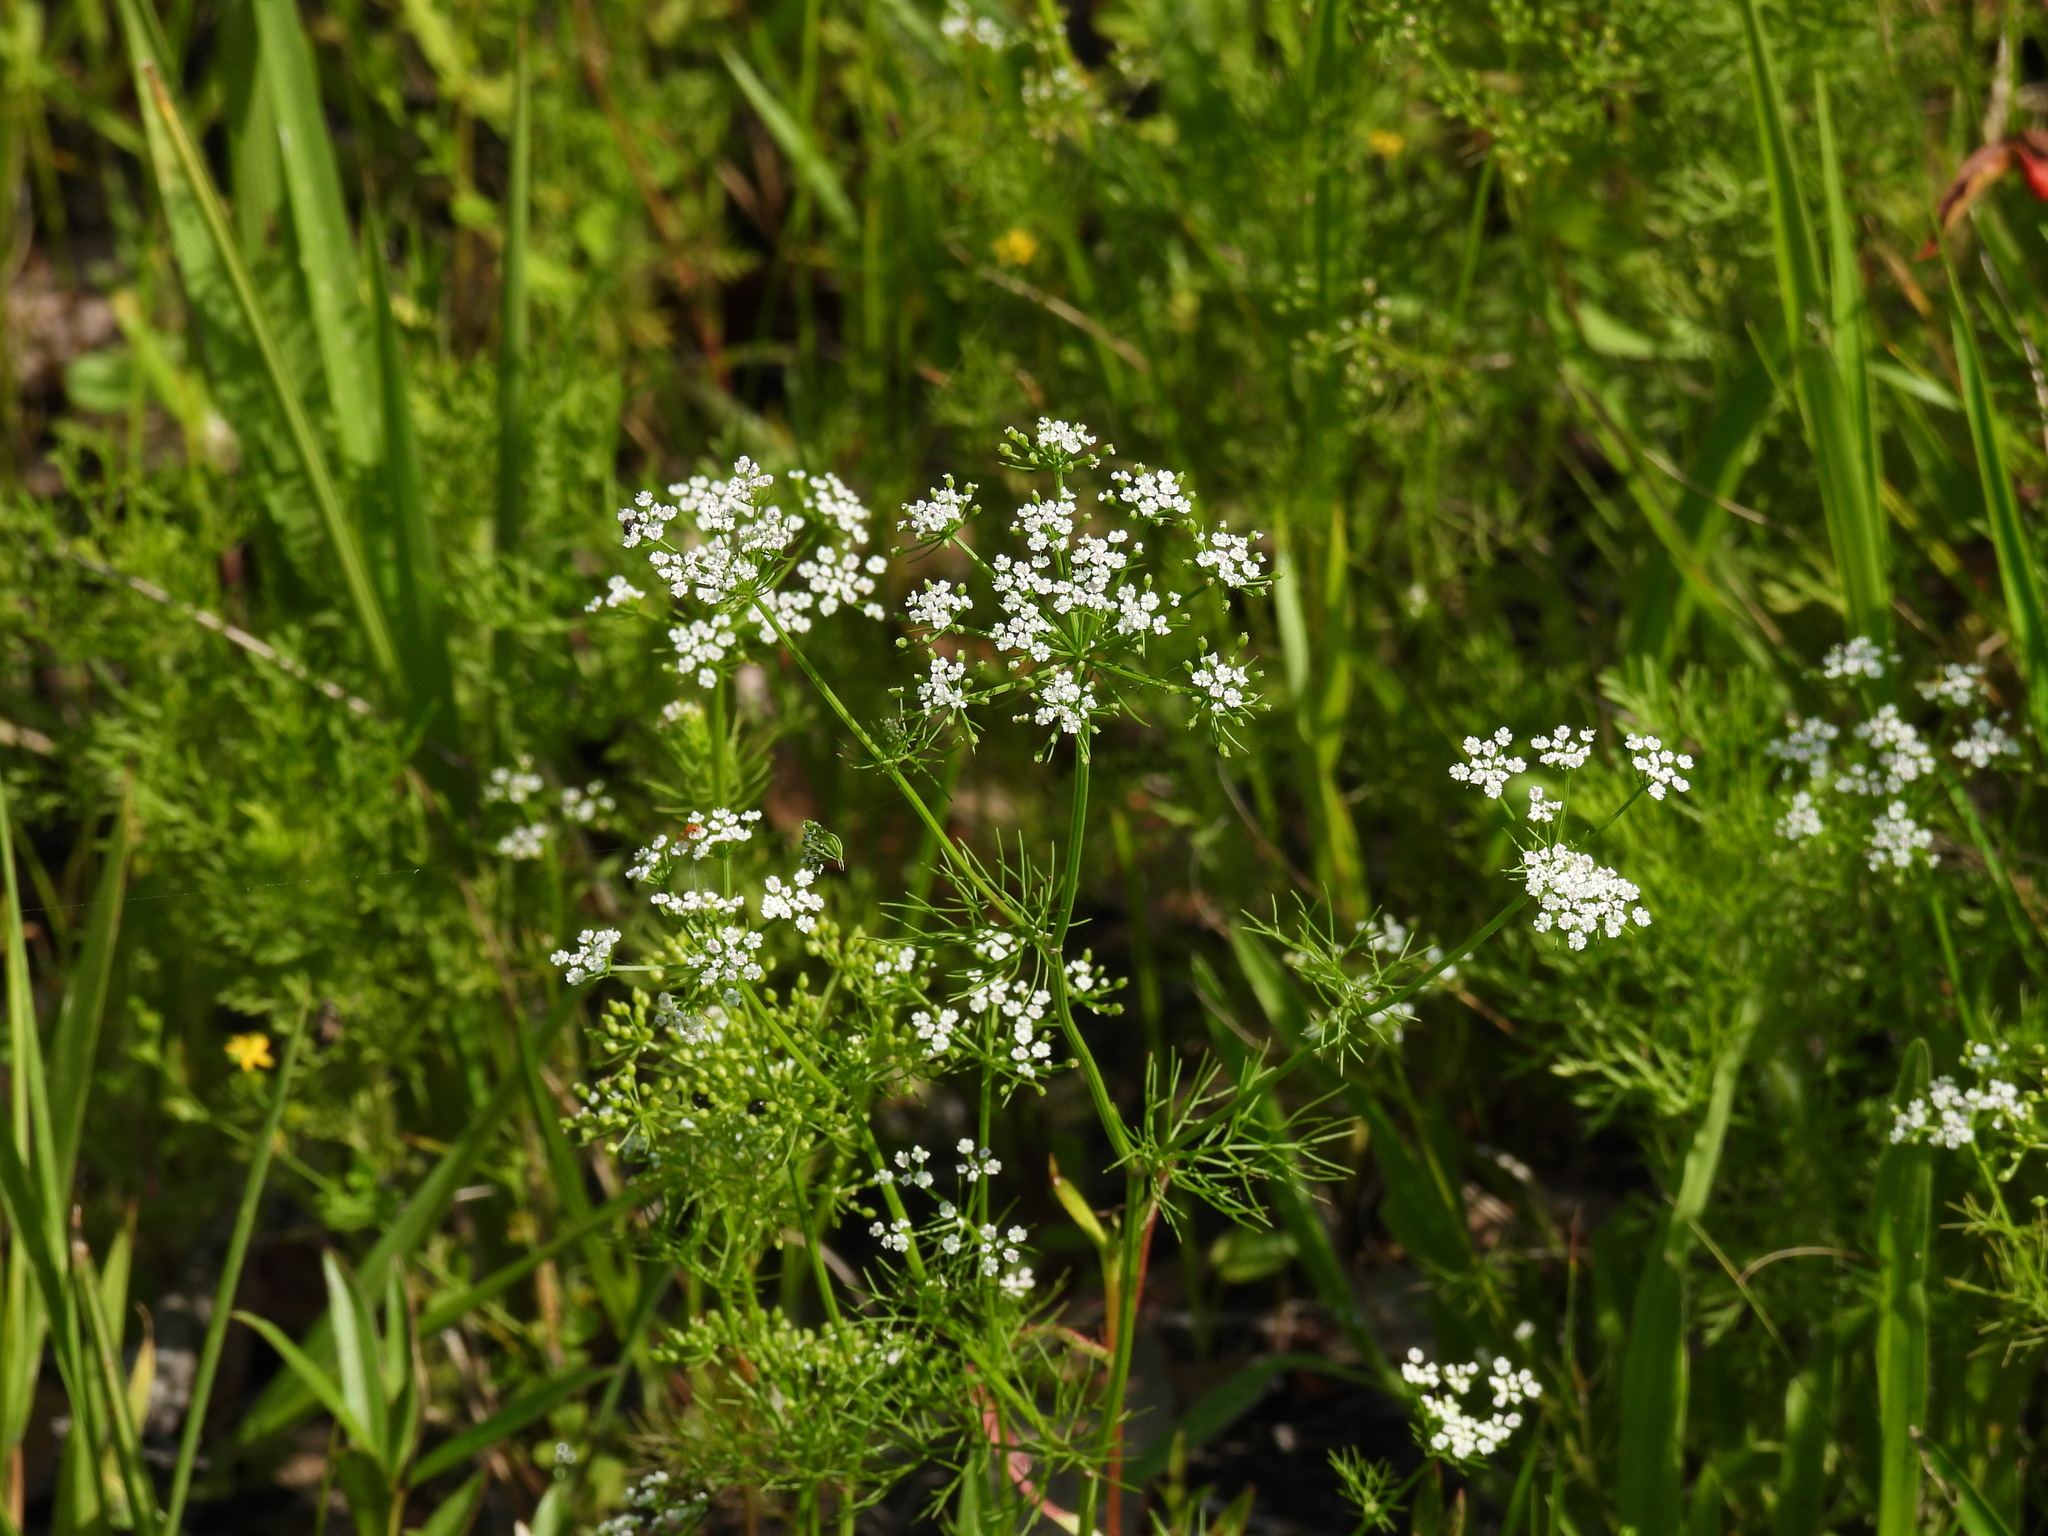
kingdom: Plantae
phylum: Tracheophyta
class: Magnoliopsida
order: Apiales
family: Apiaceae
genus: Ptilimnium
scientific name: Ptilimnium capillaceum
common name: Herbwilliam
